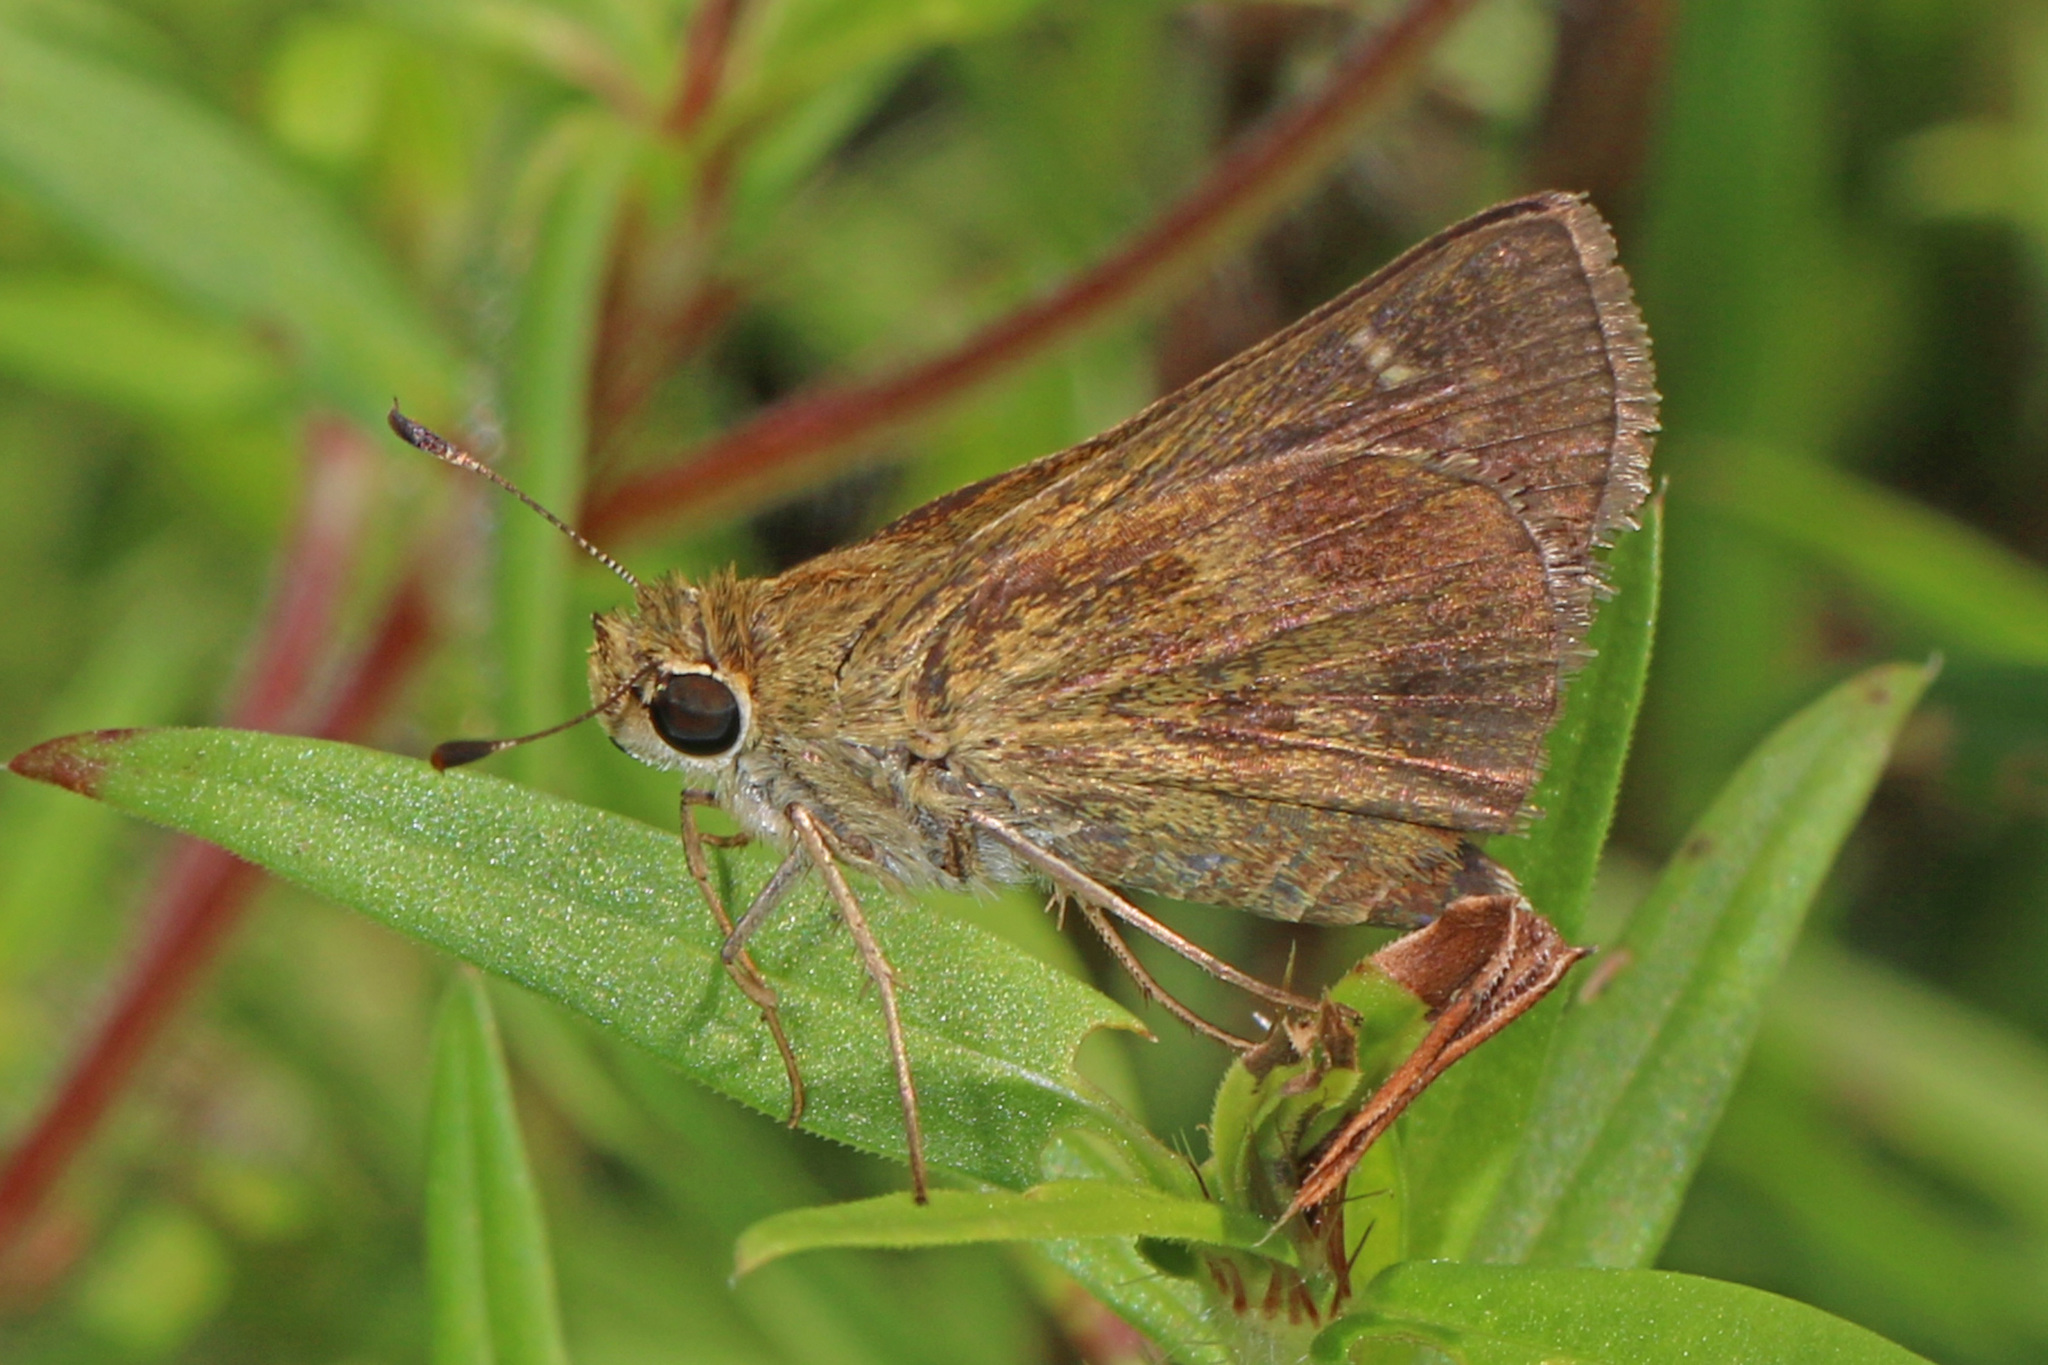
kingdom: Animalia
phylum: Arthropoda
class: Insecta
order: Lepidoptera
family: Hesperiidae
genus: Polites
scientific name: Polites vibex
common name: Whirlabout
